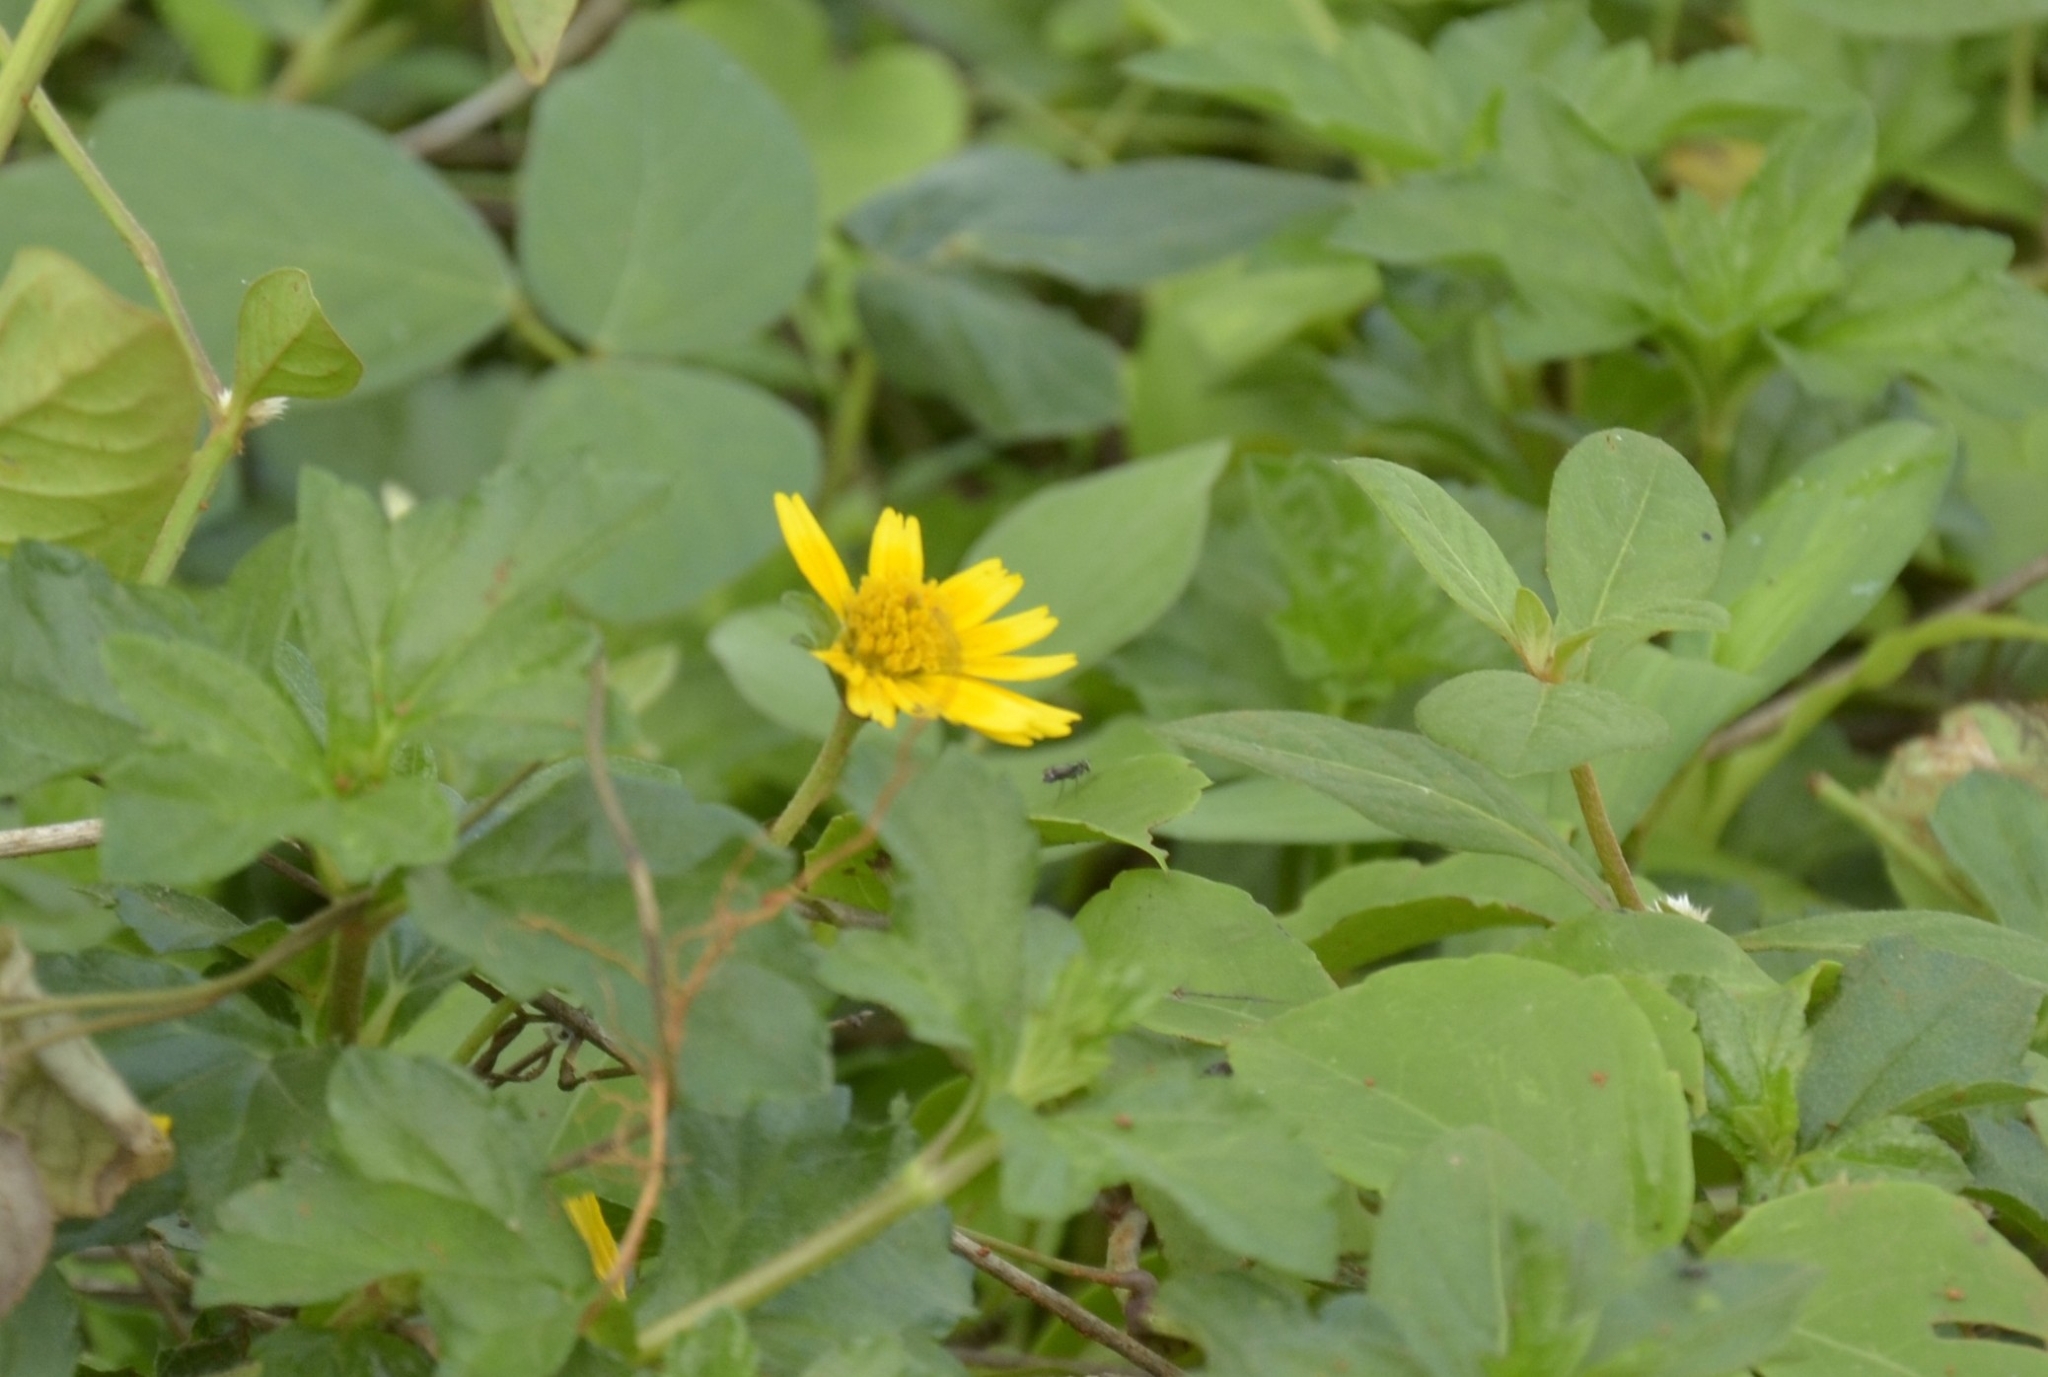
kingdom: Plantae
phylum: Tracheophyta
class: Magnoliopsida
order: Asterales
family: Asteraceae
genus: Sphagneticola
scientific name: Sphagneticola trilobata
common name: Bay biscayne creeping-oxeye
